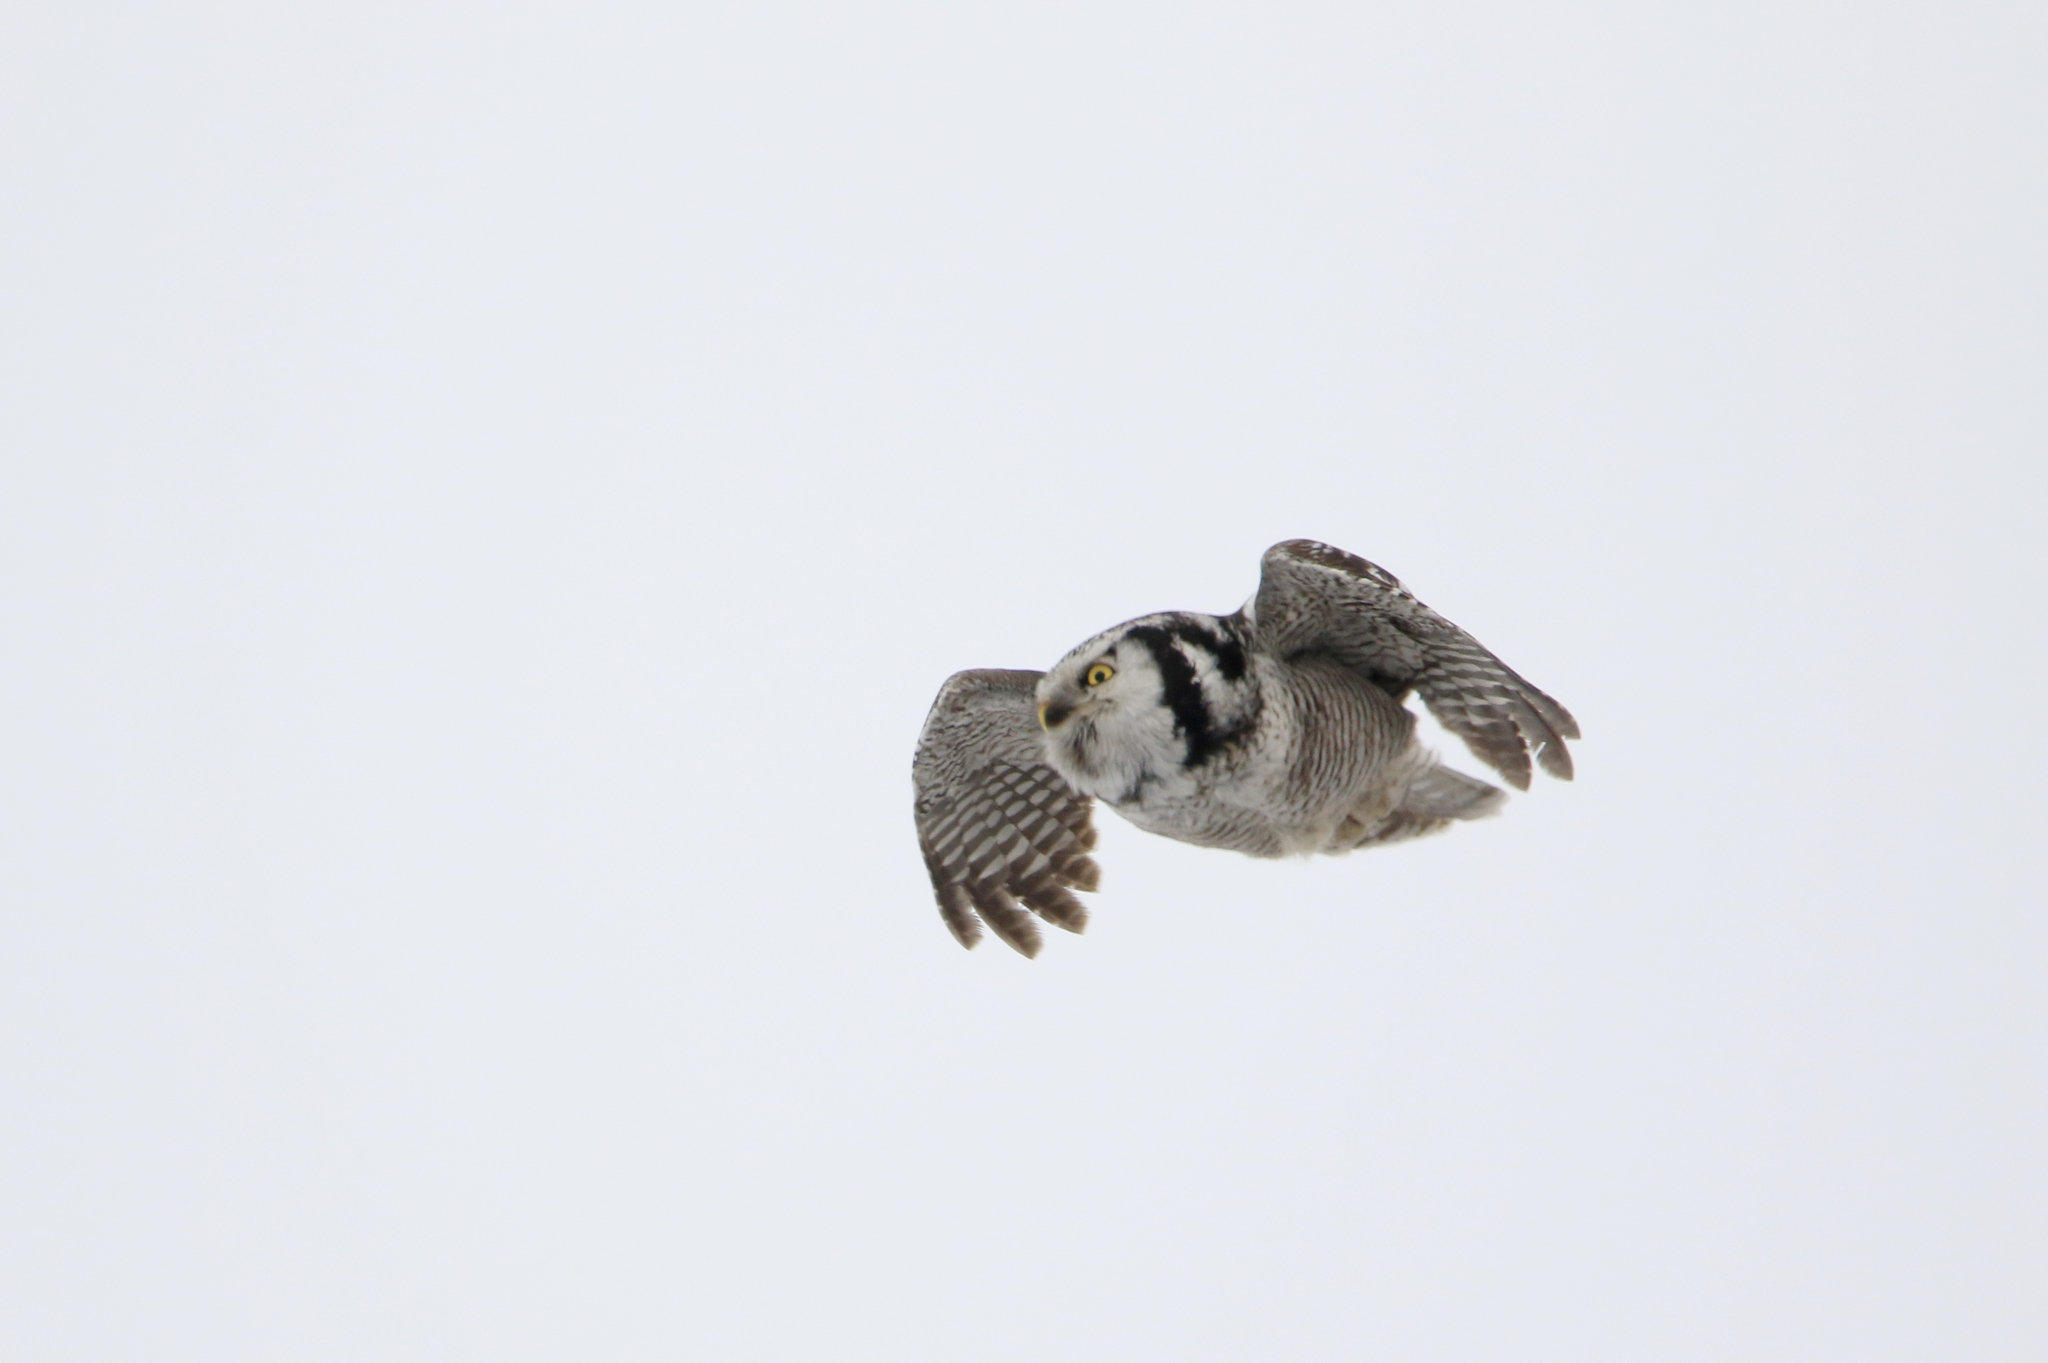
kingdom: Animalia
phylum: Chordata
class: Aves
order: Strigiformes
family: Strigidae
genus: Surnia
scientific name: Surnia ulula
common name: Northern hawk-owl
